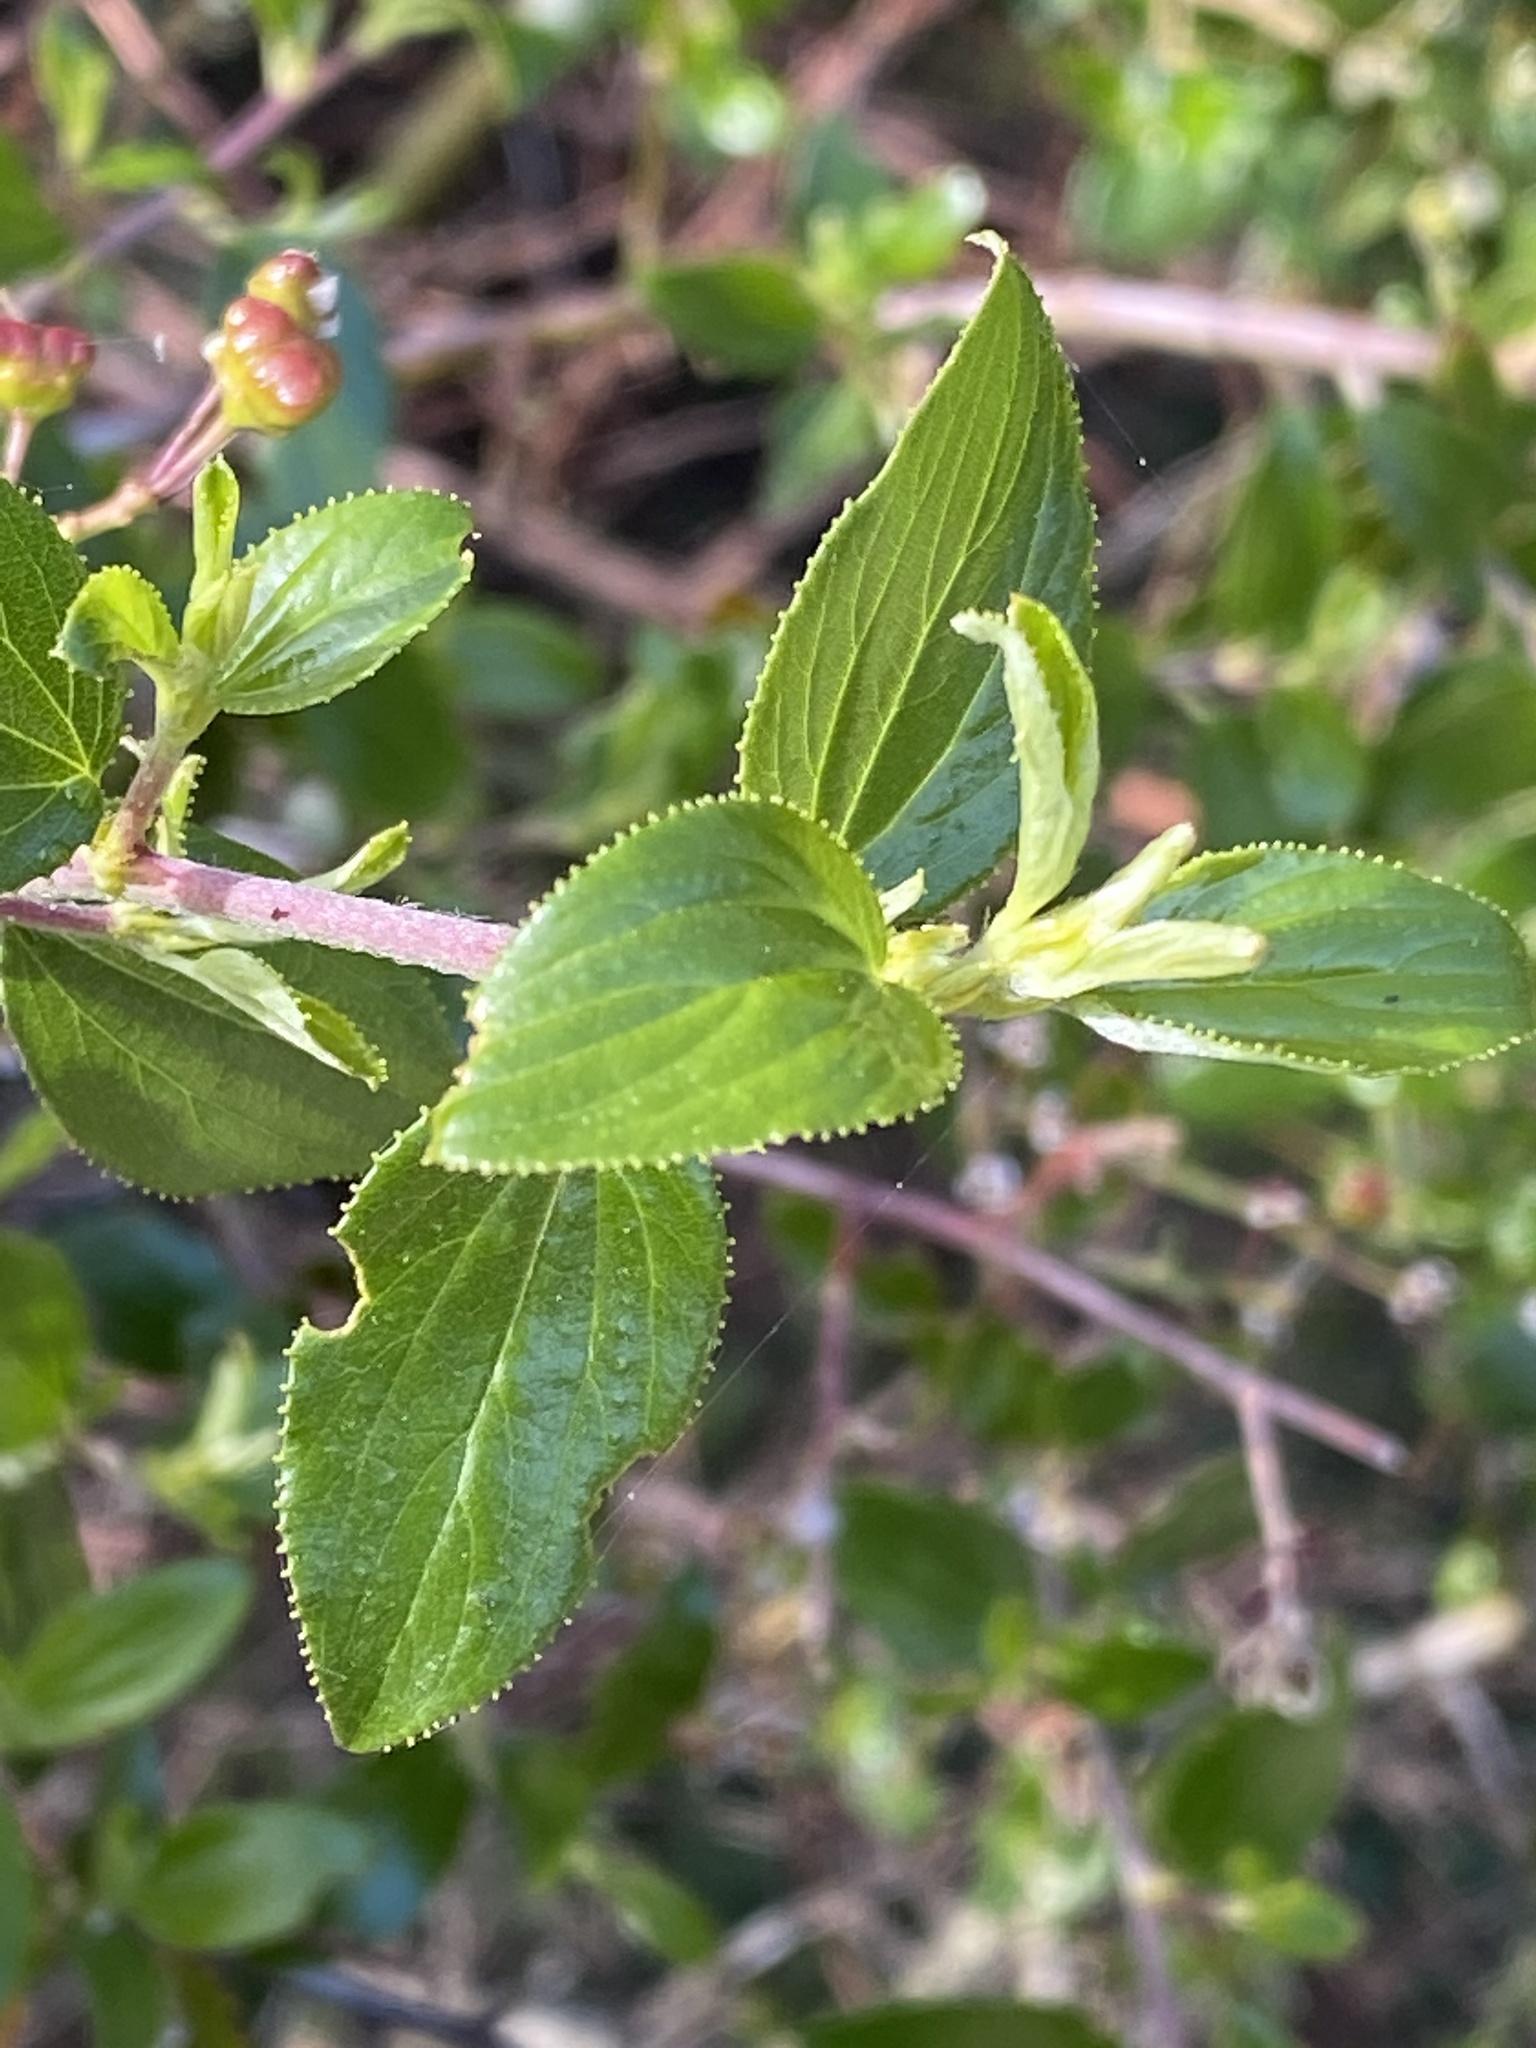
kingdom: Plantae
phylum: Tracheophyta
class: Magnoliopsida
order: Rosales
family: Rhamnaceae
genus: Ceanothus
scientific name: Ceanothus sorediatus
